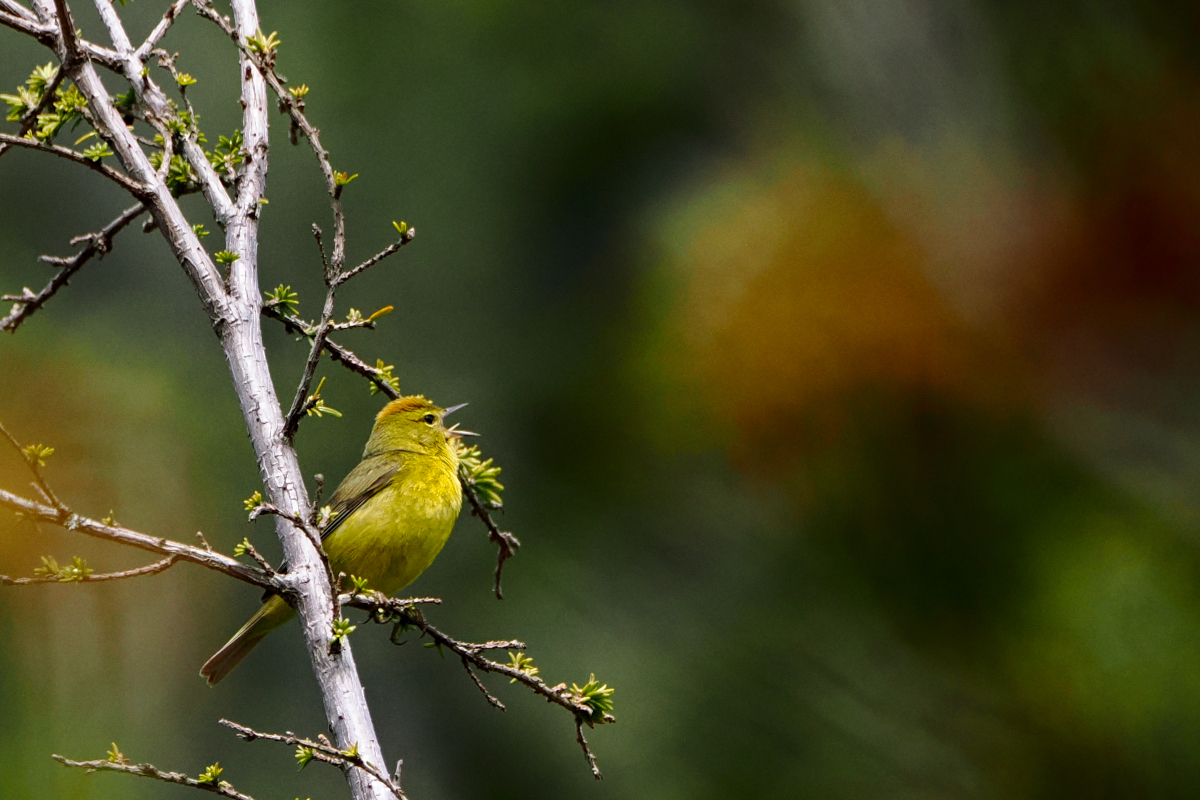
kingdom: Animalia
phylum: Chordata
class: Aves
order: Passeriformes
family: Parulidae
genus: Leiothlypis
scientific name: Leiothlypis celata
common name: Orange-crowned warbler
